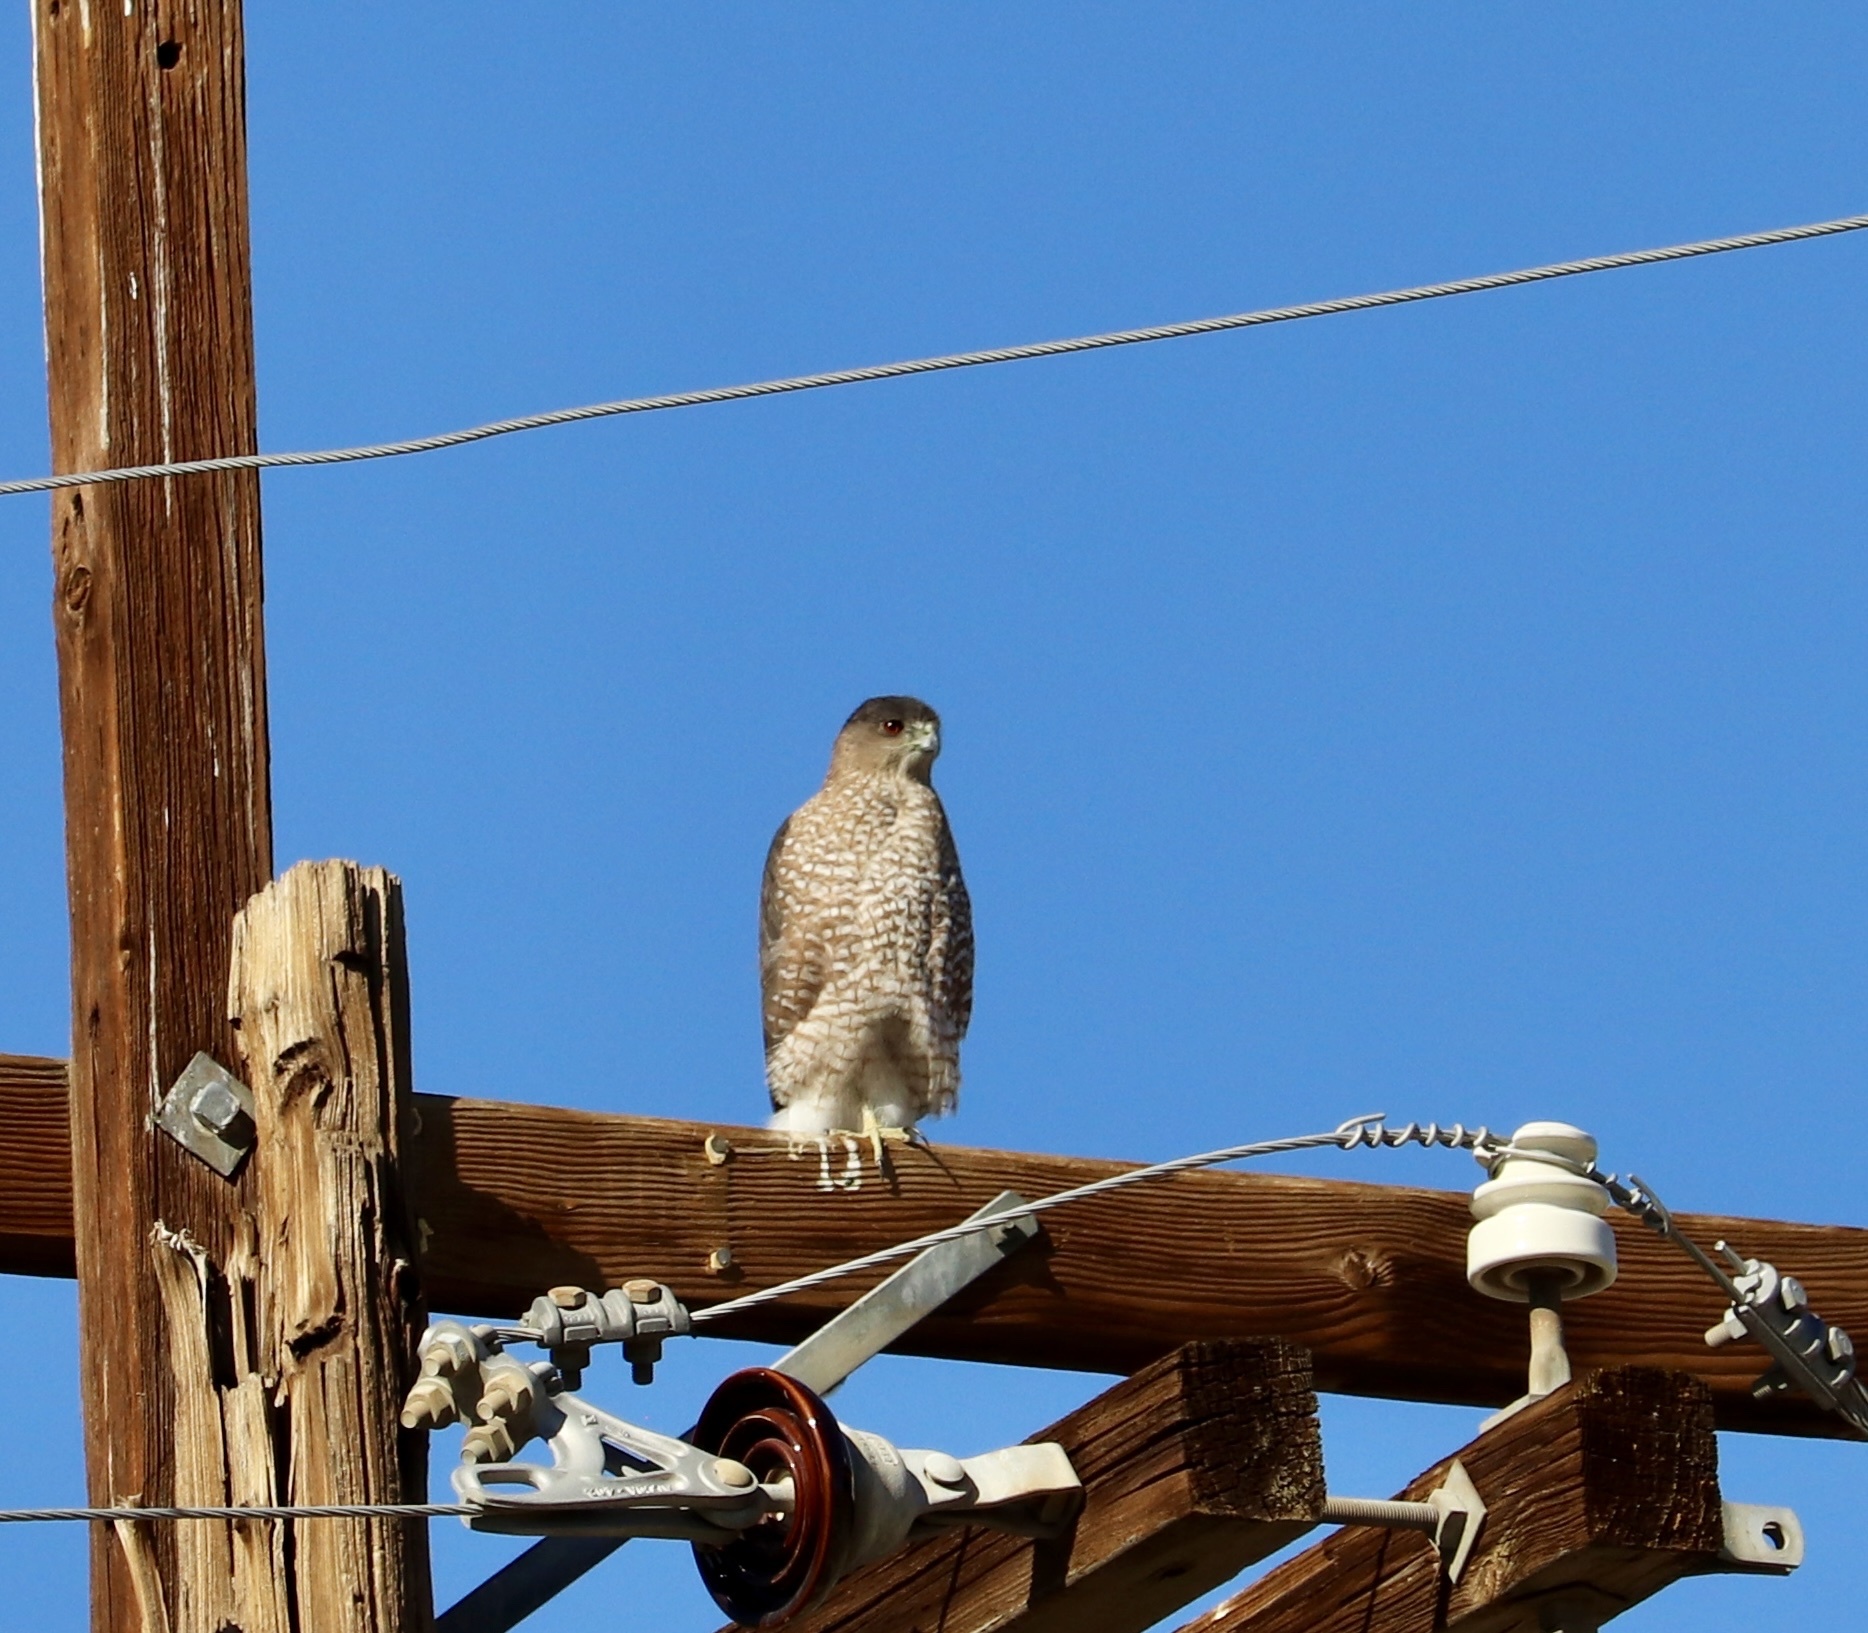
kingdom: Animalia
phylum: Chordata
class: Aves
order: Accipitriformes
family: Accipitridae
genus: Accipiter
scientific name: Accipiter cooperii
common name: Cooper's hawk
